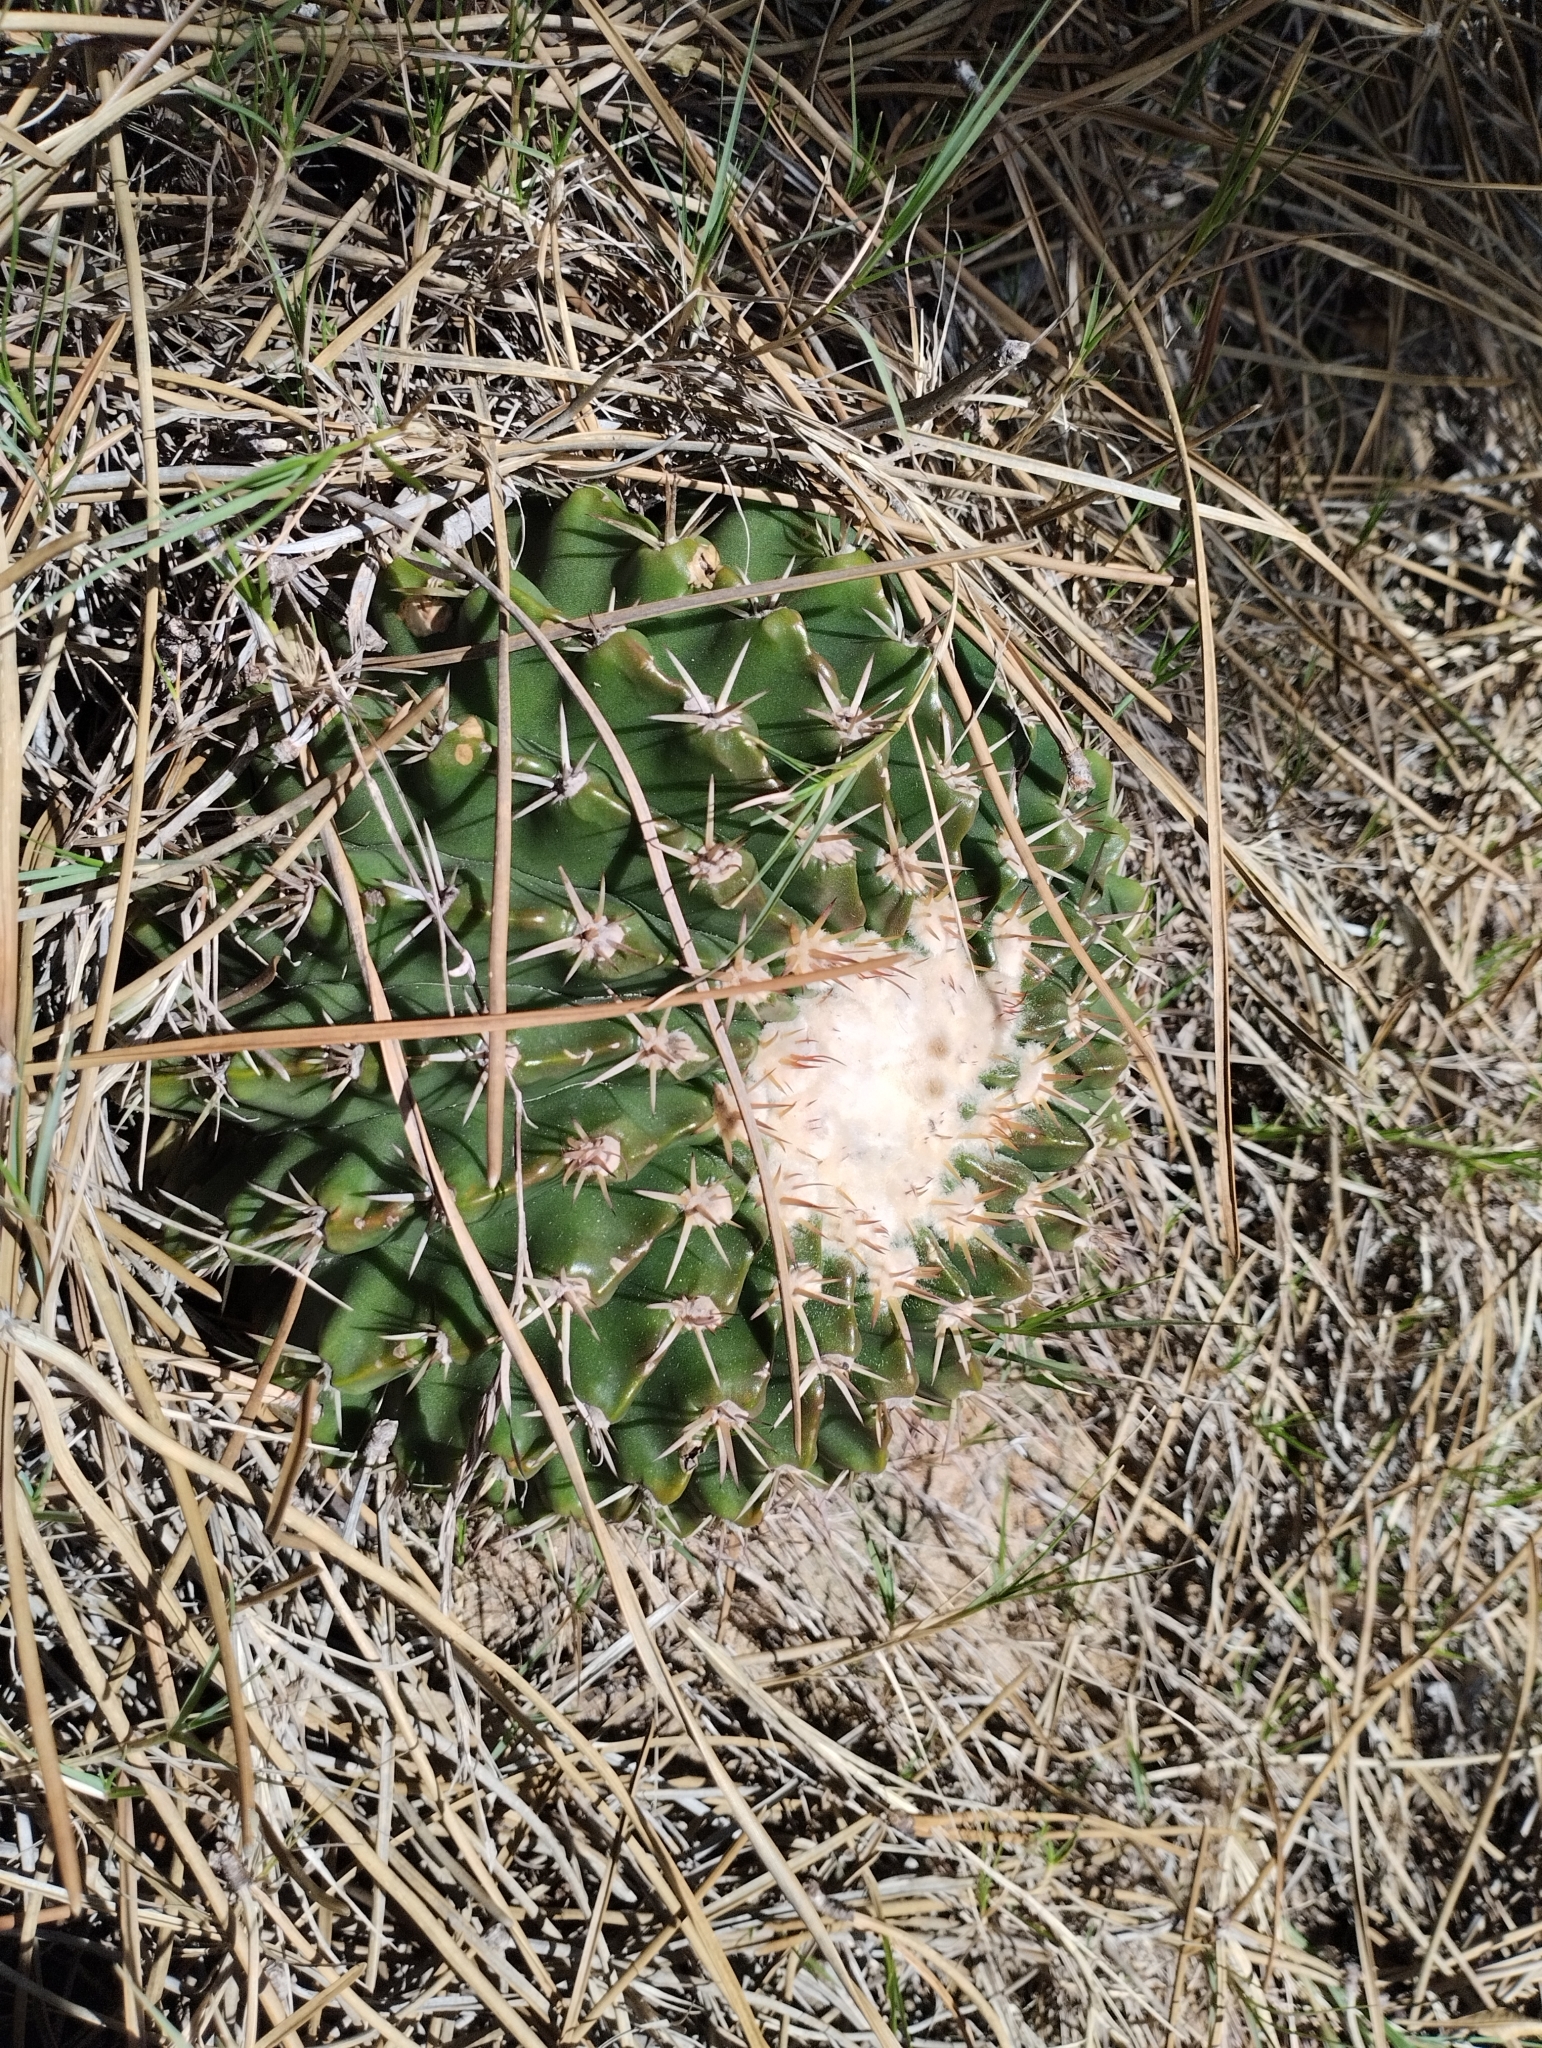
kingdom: Plantae
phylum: Tracheophyta
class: Magnoliopsida
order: Caryophyllales
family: Cactaceae
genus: Parodia
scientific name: Parodia erinacea
